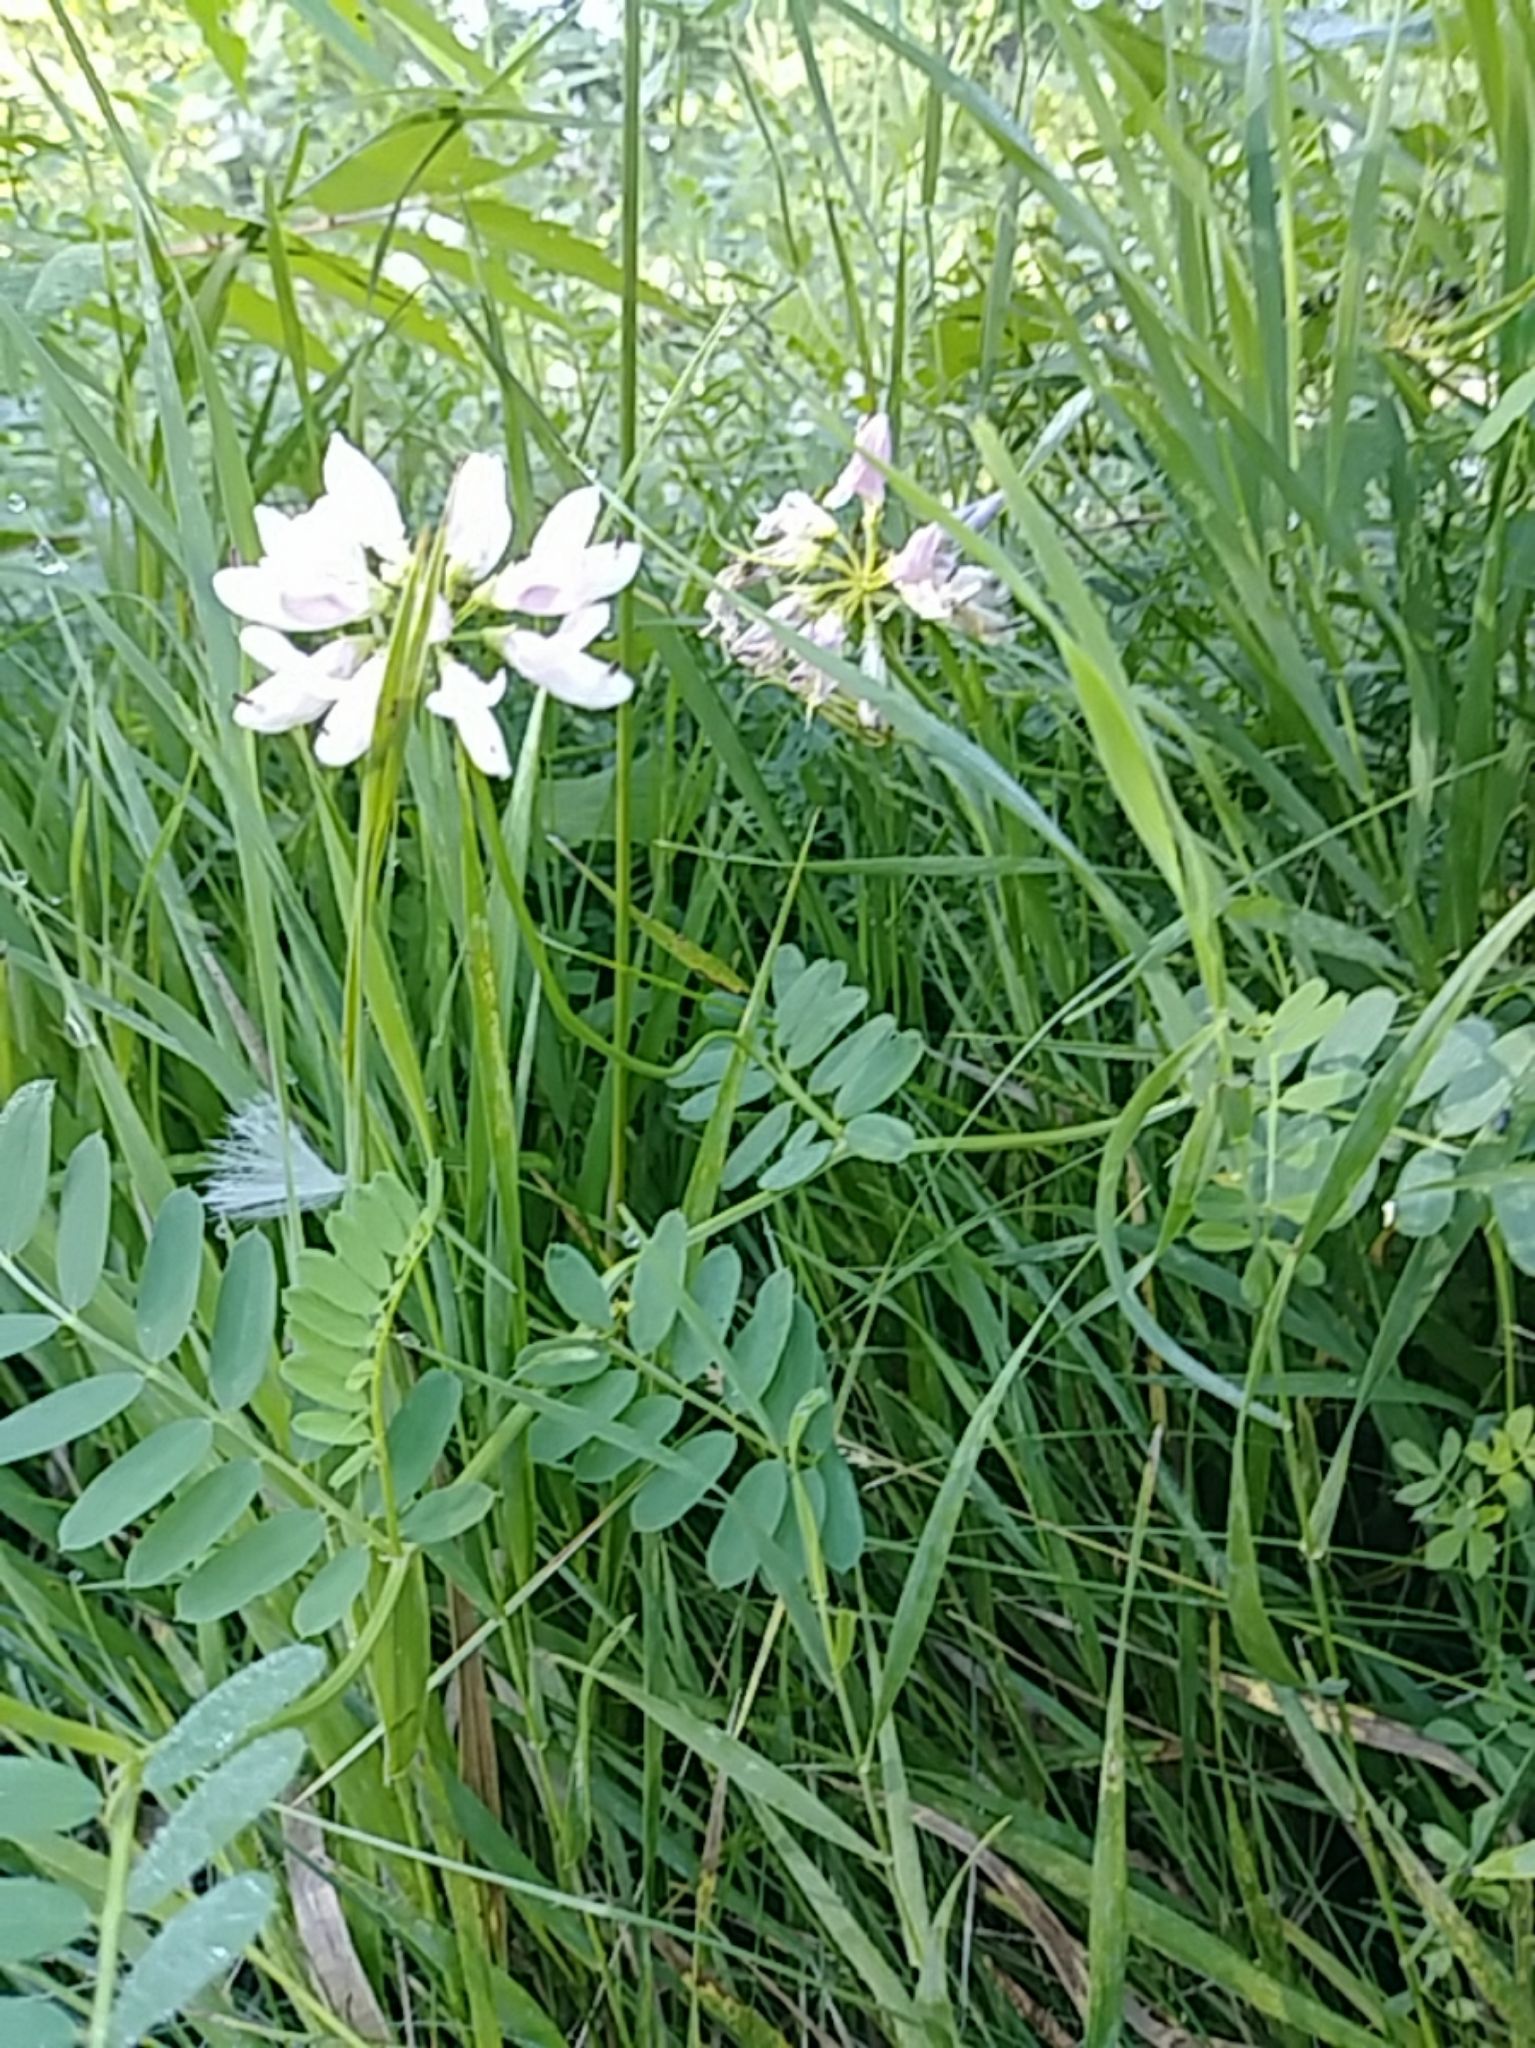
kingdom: Plantae
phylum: Tracheophyta
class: Magnoliopsida
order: Fabales
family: Fabaceae
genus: Coronilla
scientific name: Coronilla varia
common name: Crownvetch
